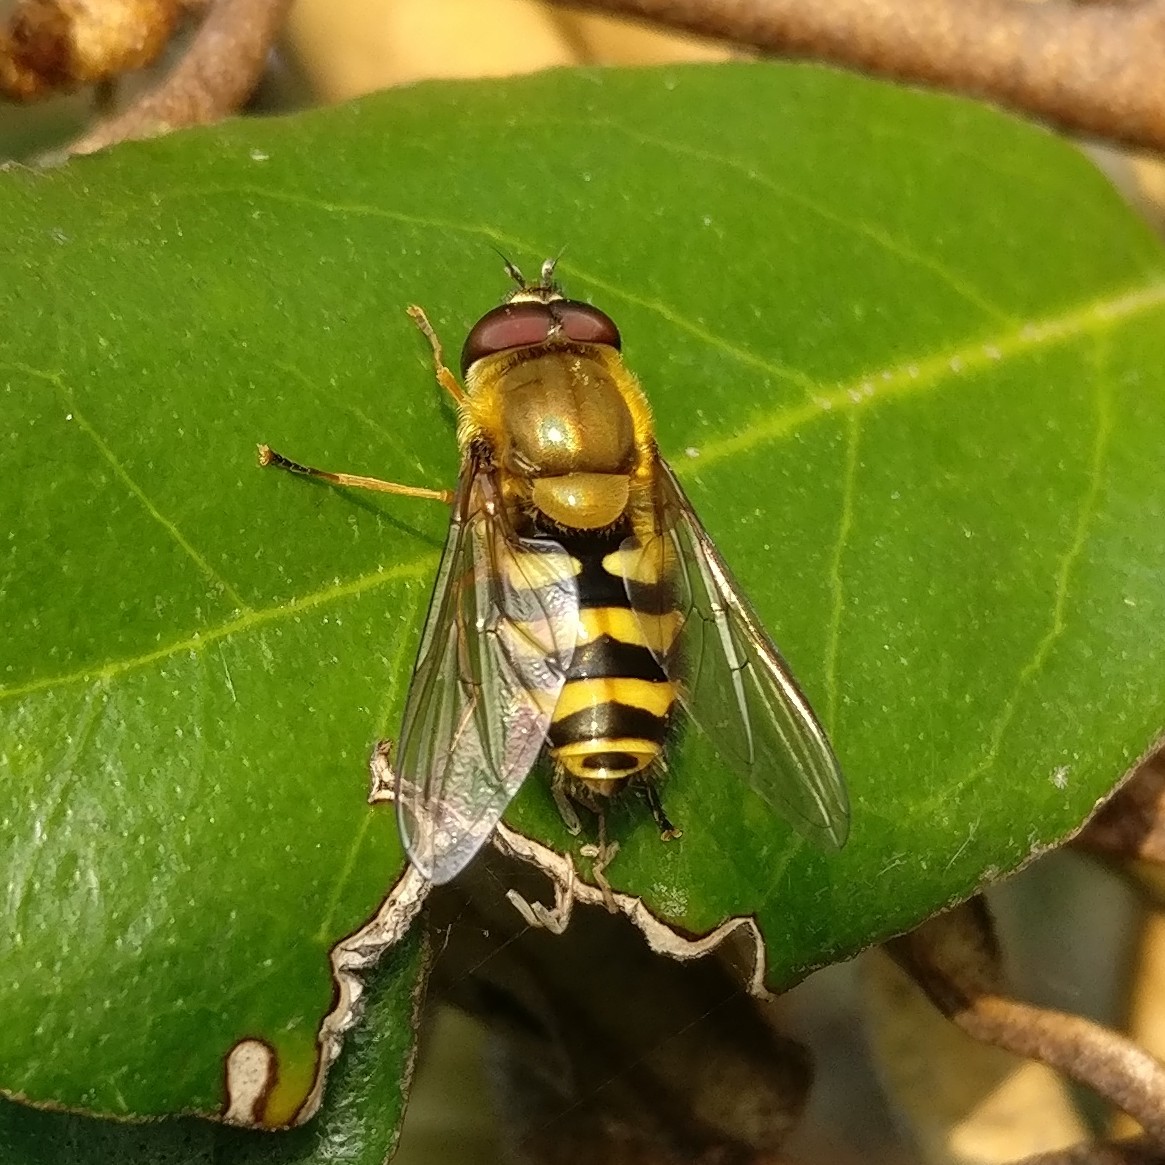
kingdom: Animalia
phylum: Arthropoda
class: Insecta
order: Diptera
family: Syrphidae
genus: Syrphus
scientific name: Syrphus
